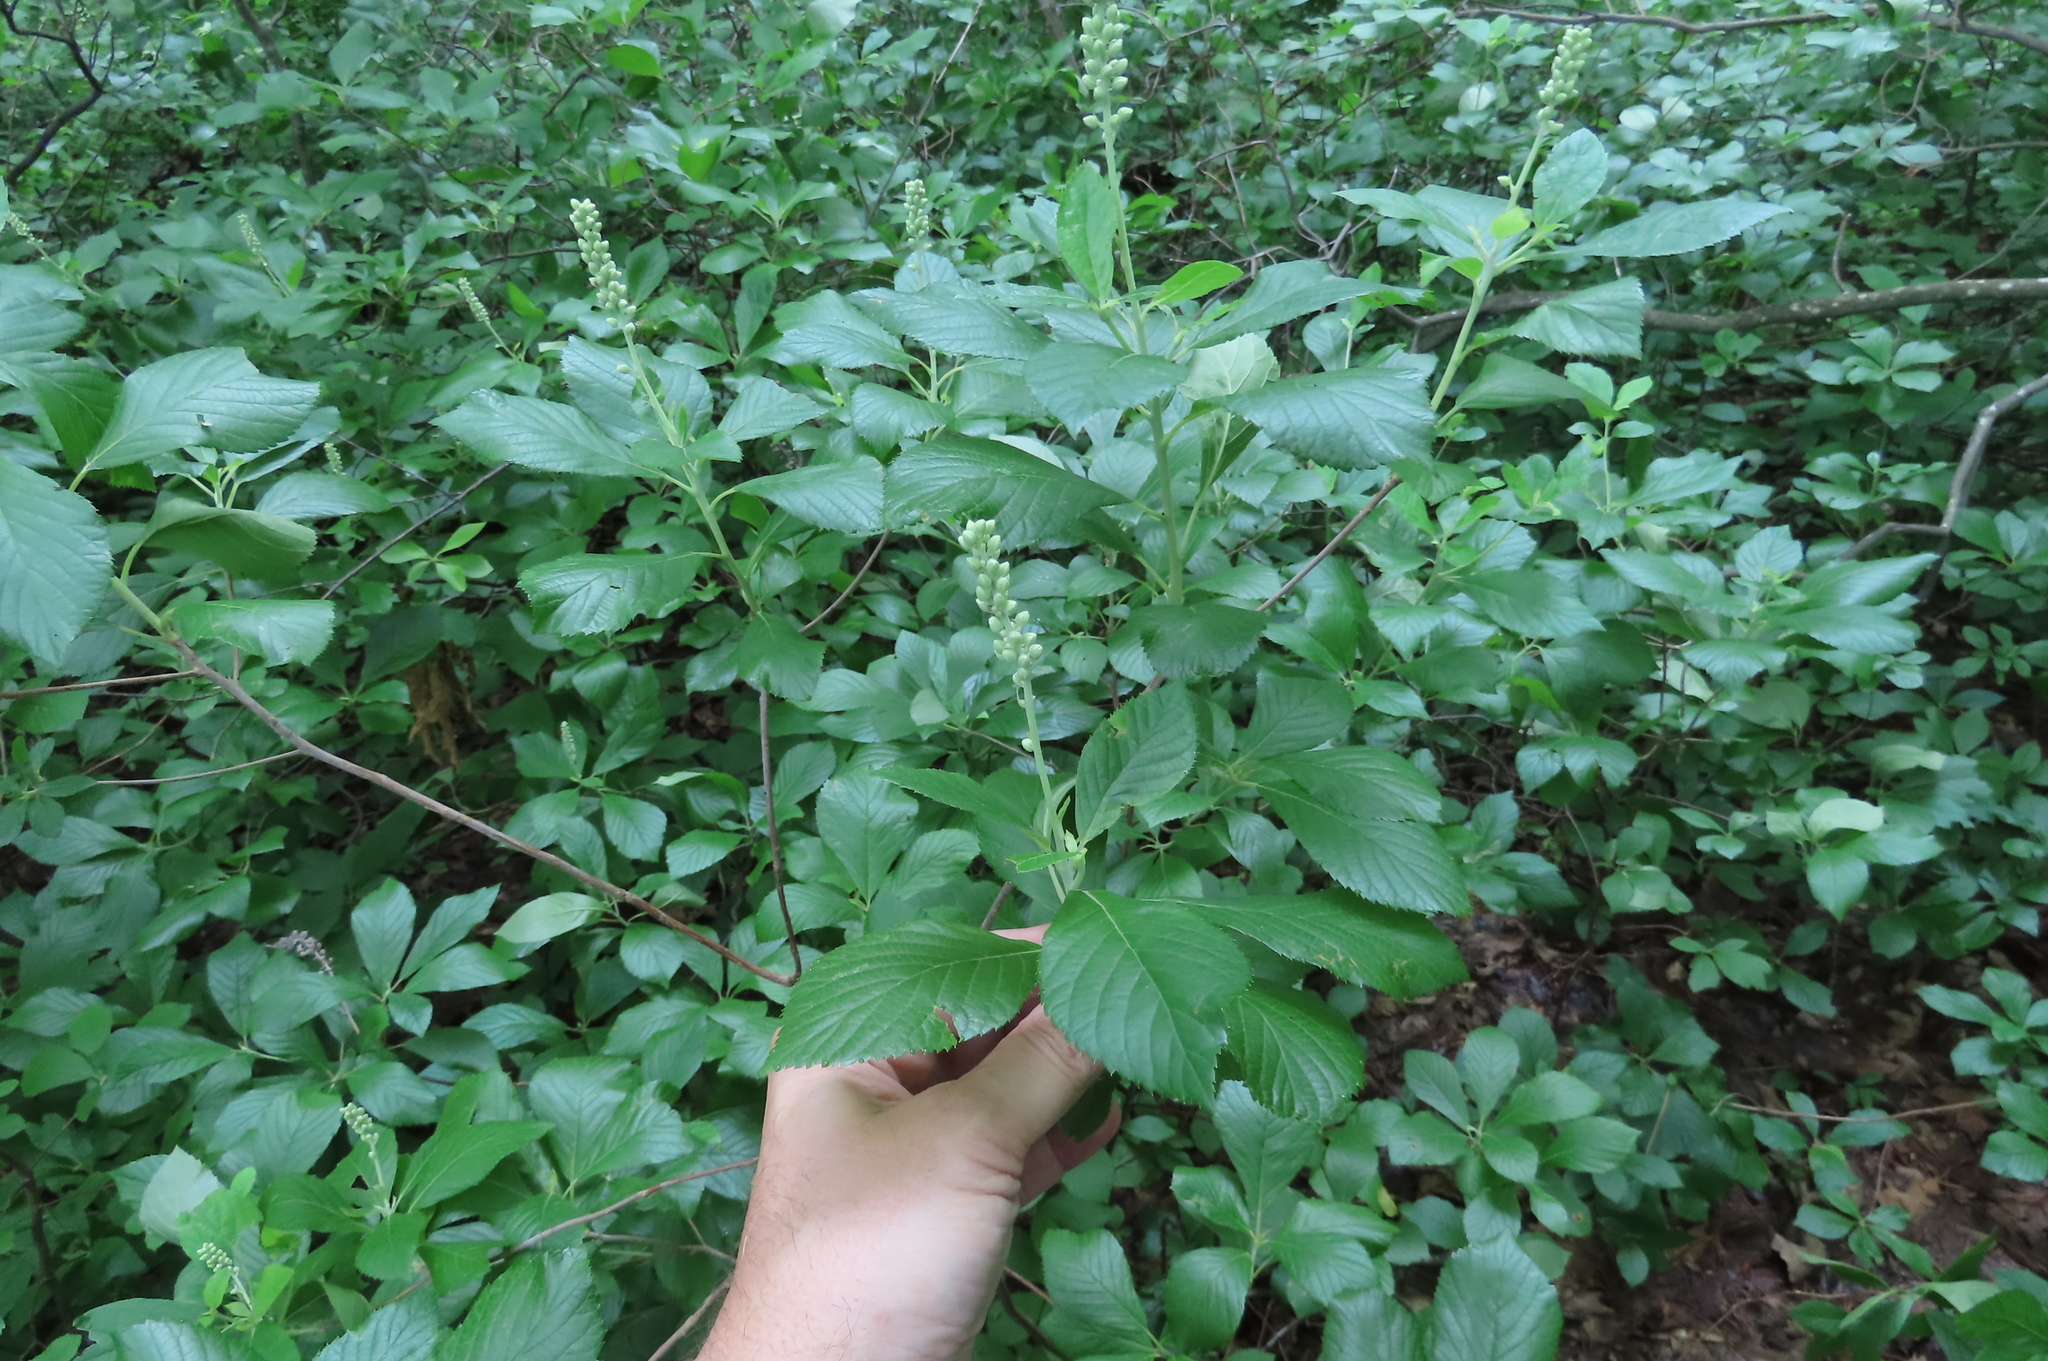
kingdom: Plantae
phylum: Tracheophyta
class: Magnoliopsida
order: Ericales
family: Clethraceae
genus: Clethra
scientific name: Clethra alnifolia
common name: Sweet pepperbush
